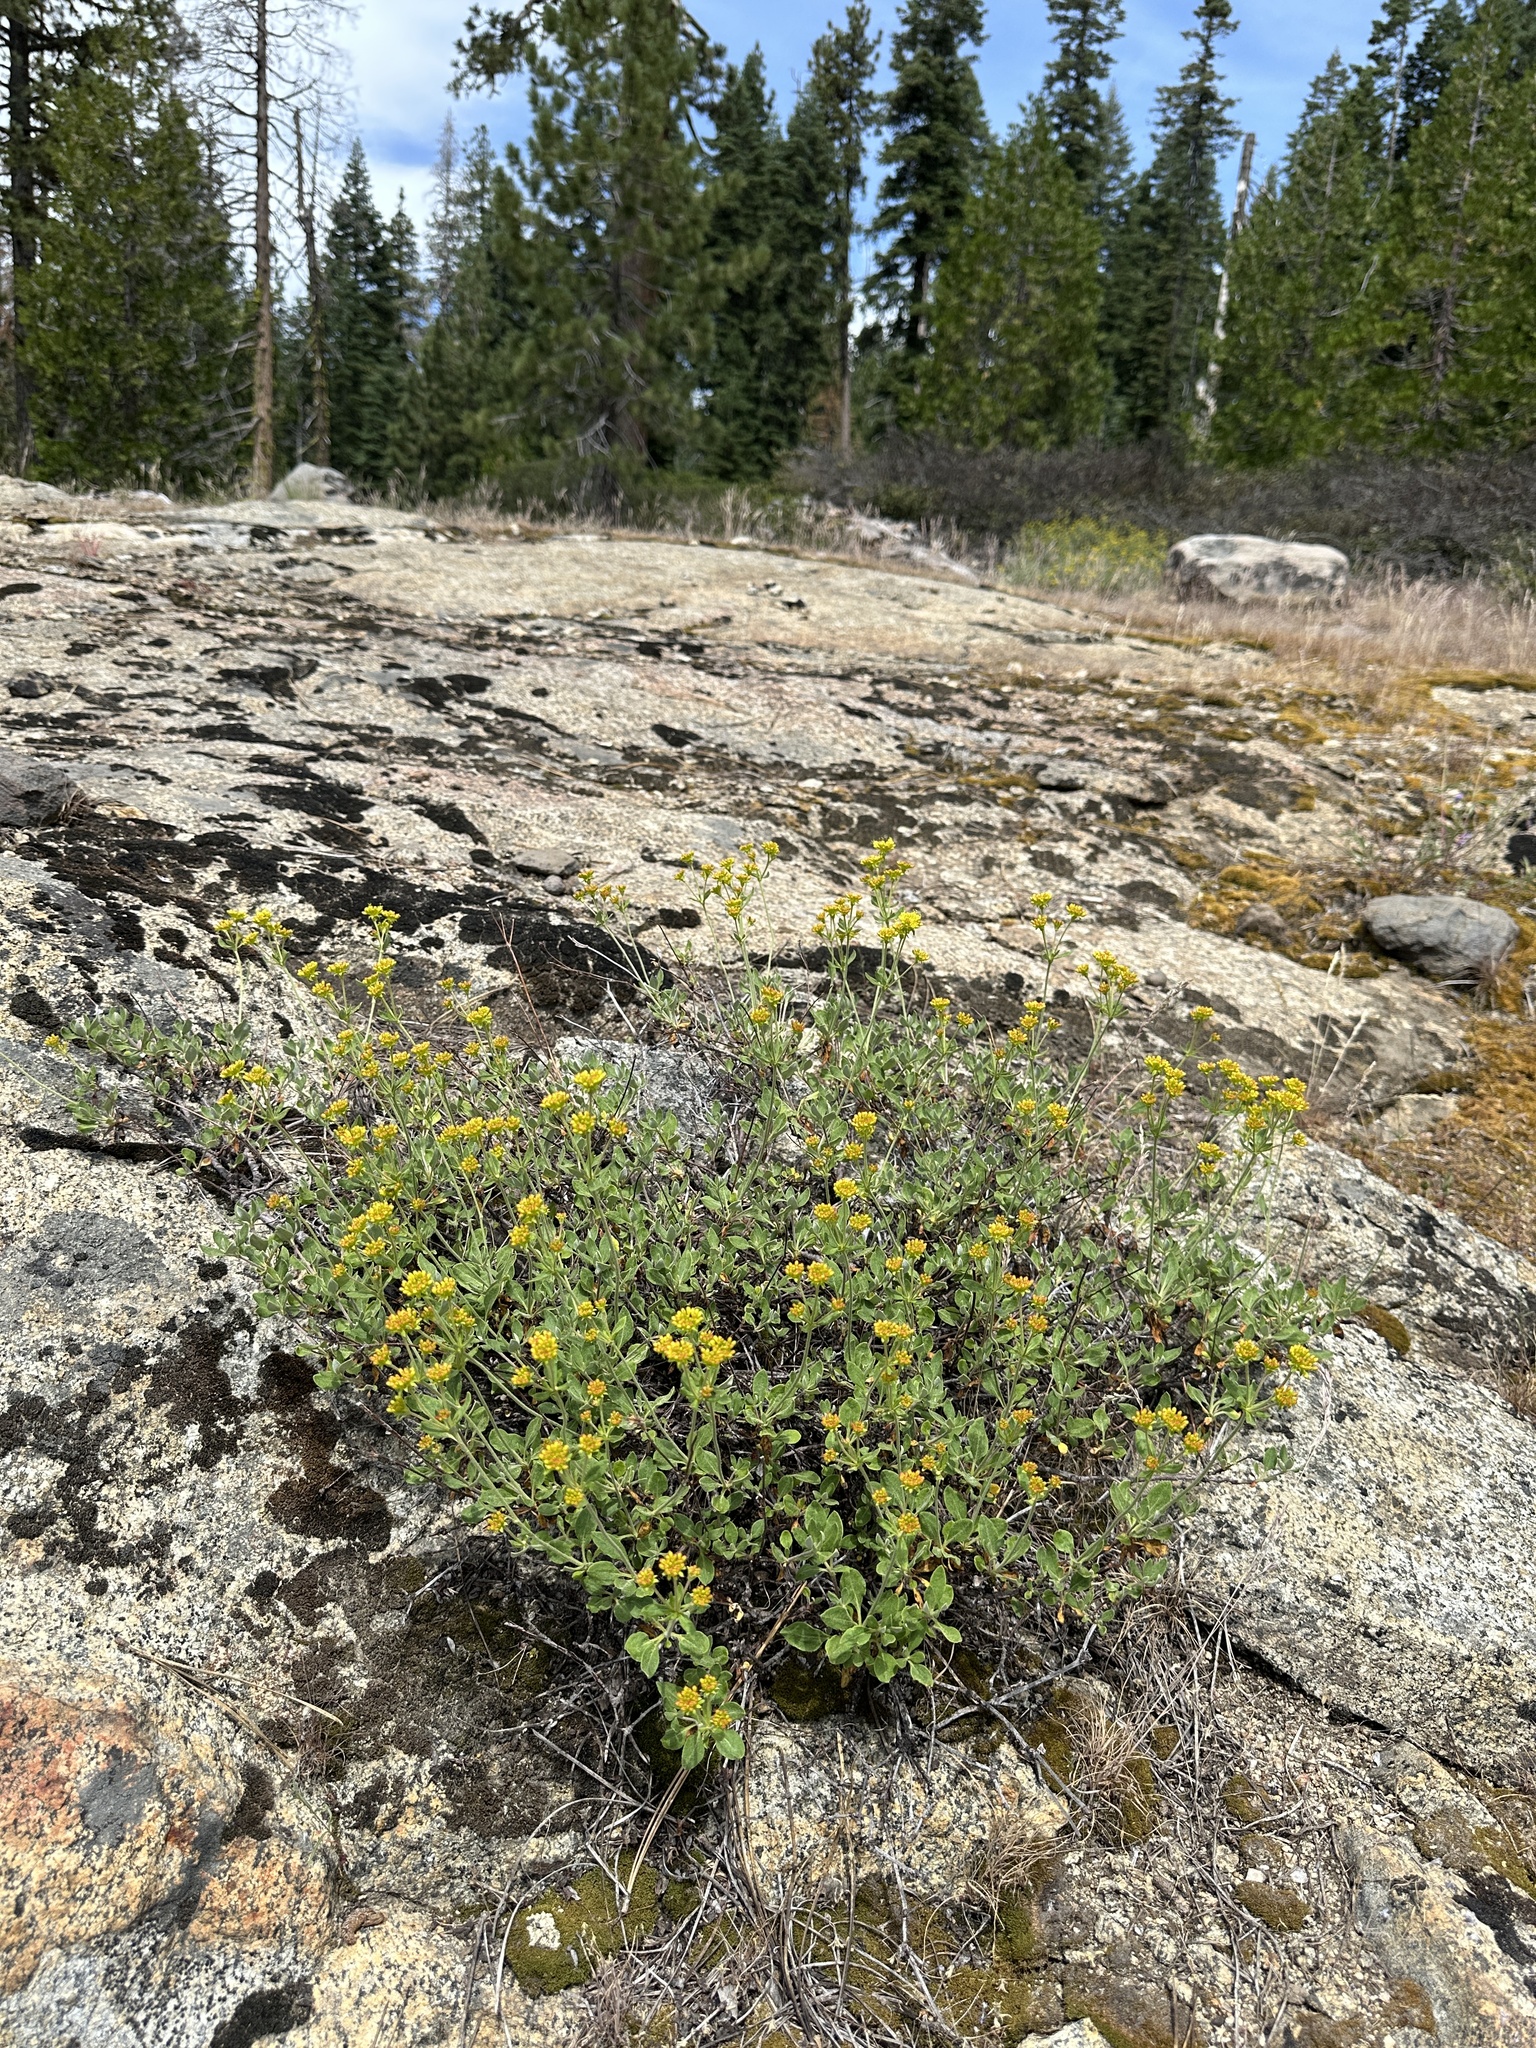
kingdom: Plantae
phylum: Tracheophyta
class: Magnoliopsida
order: Caryophyllales
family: Polygonaceae
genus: Eriogonum
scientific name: Eriogonum umbellatum
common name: Sulfur-buckwheat
